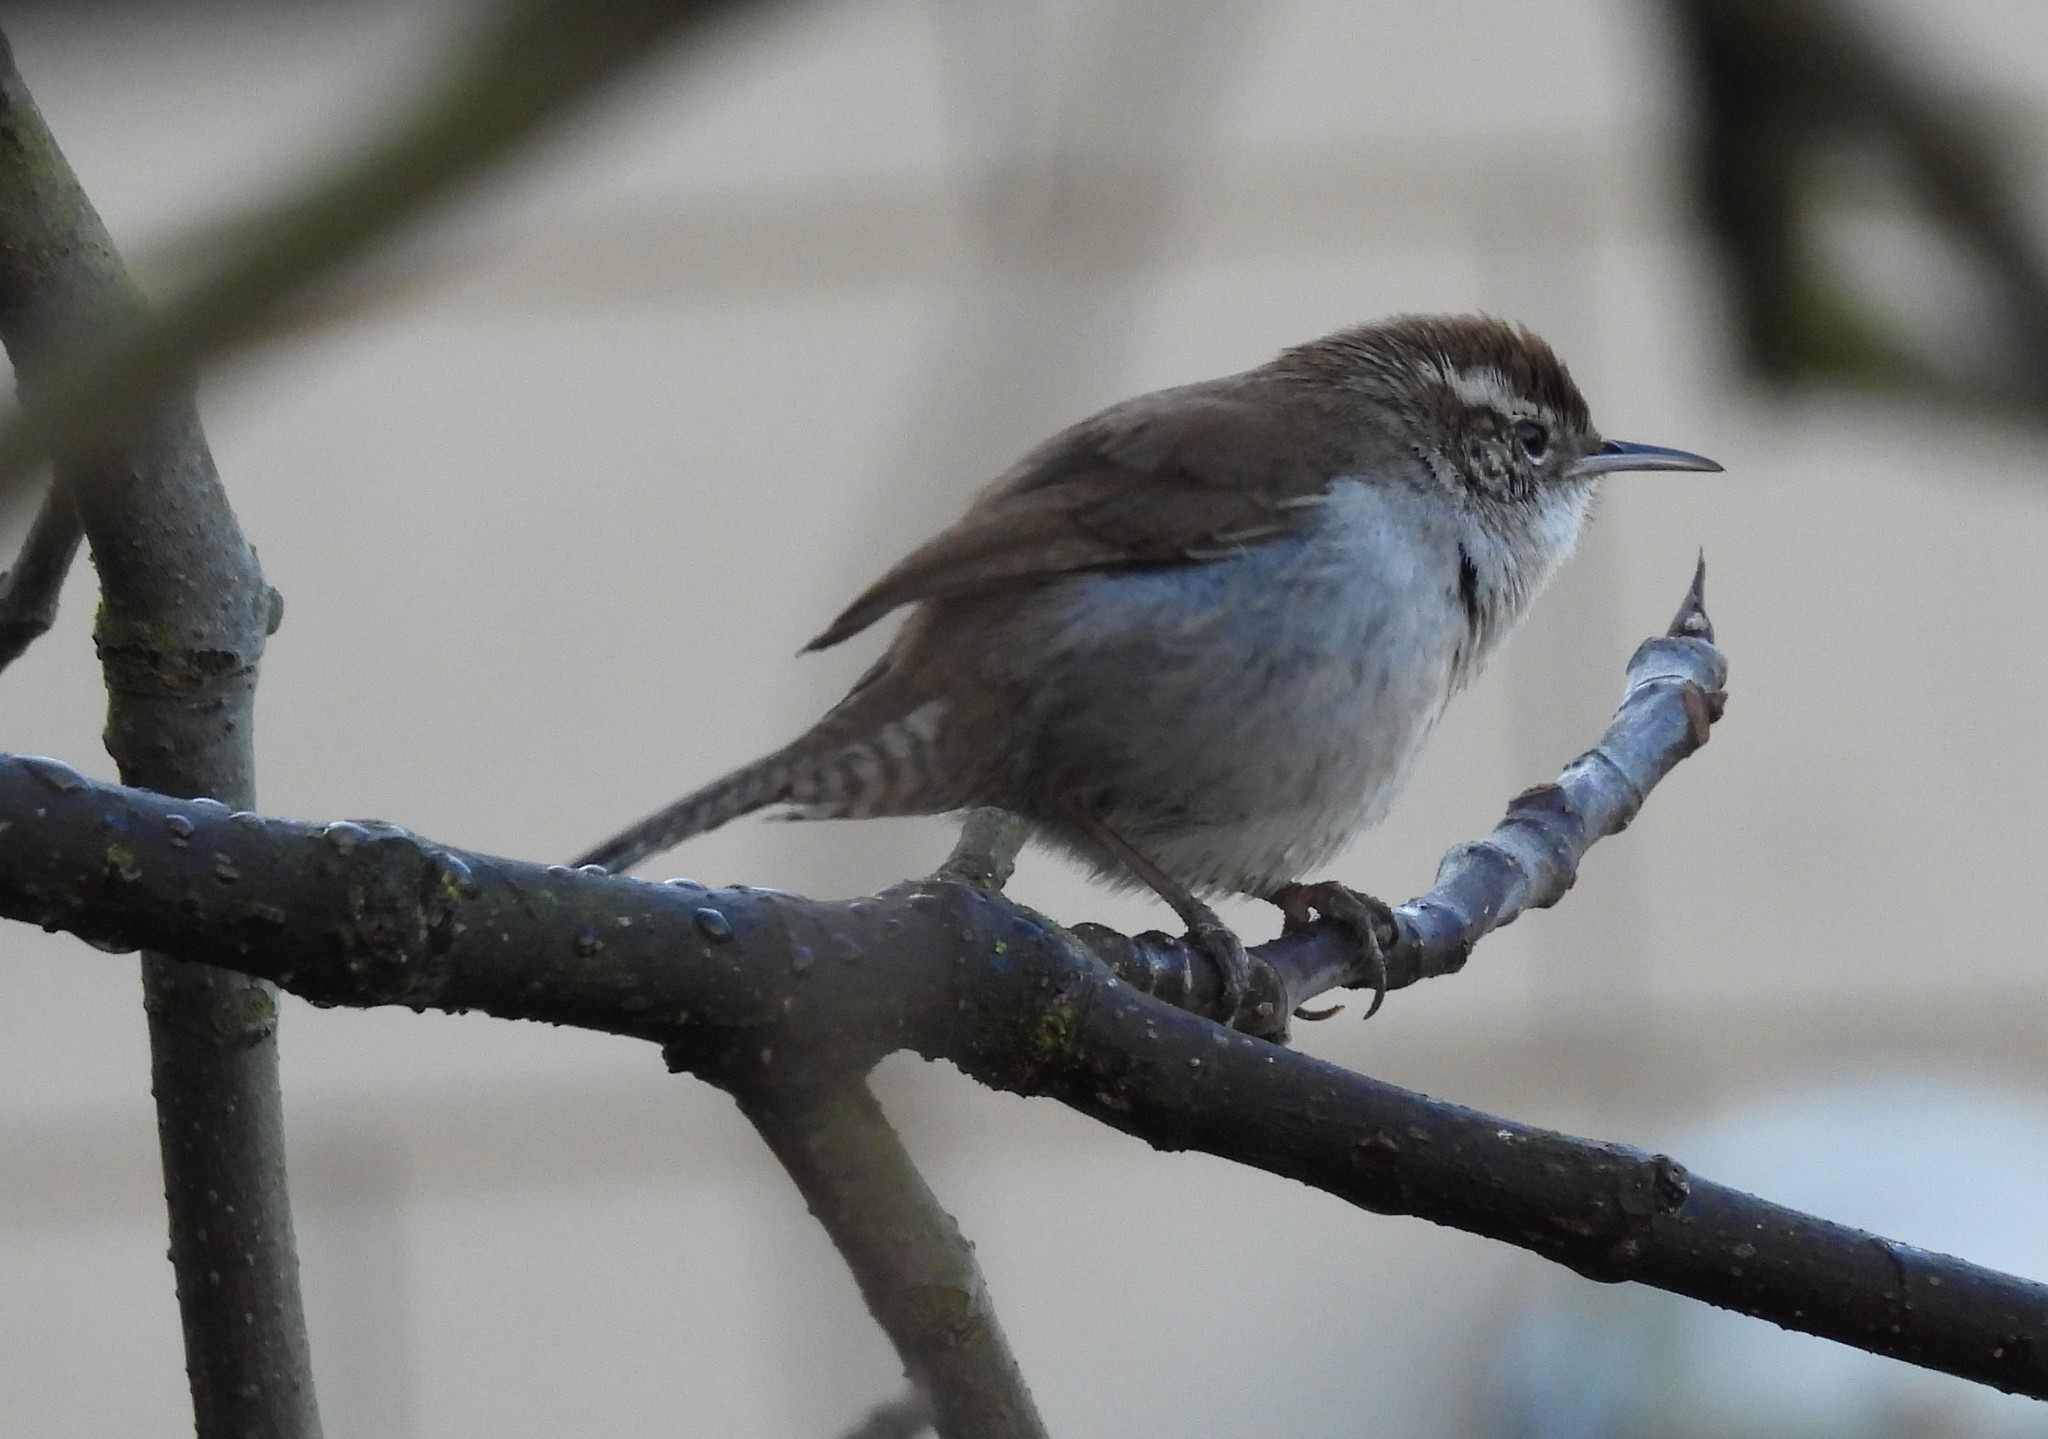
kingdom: Animalia
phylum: Chordata
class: Aves
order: Passeriformes
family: Troglodytidae
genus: Thryomanes
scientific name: Thryomanes bewickii
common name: Bewick's wren
